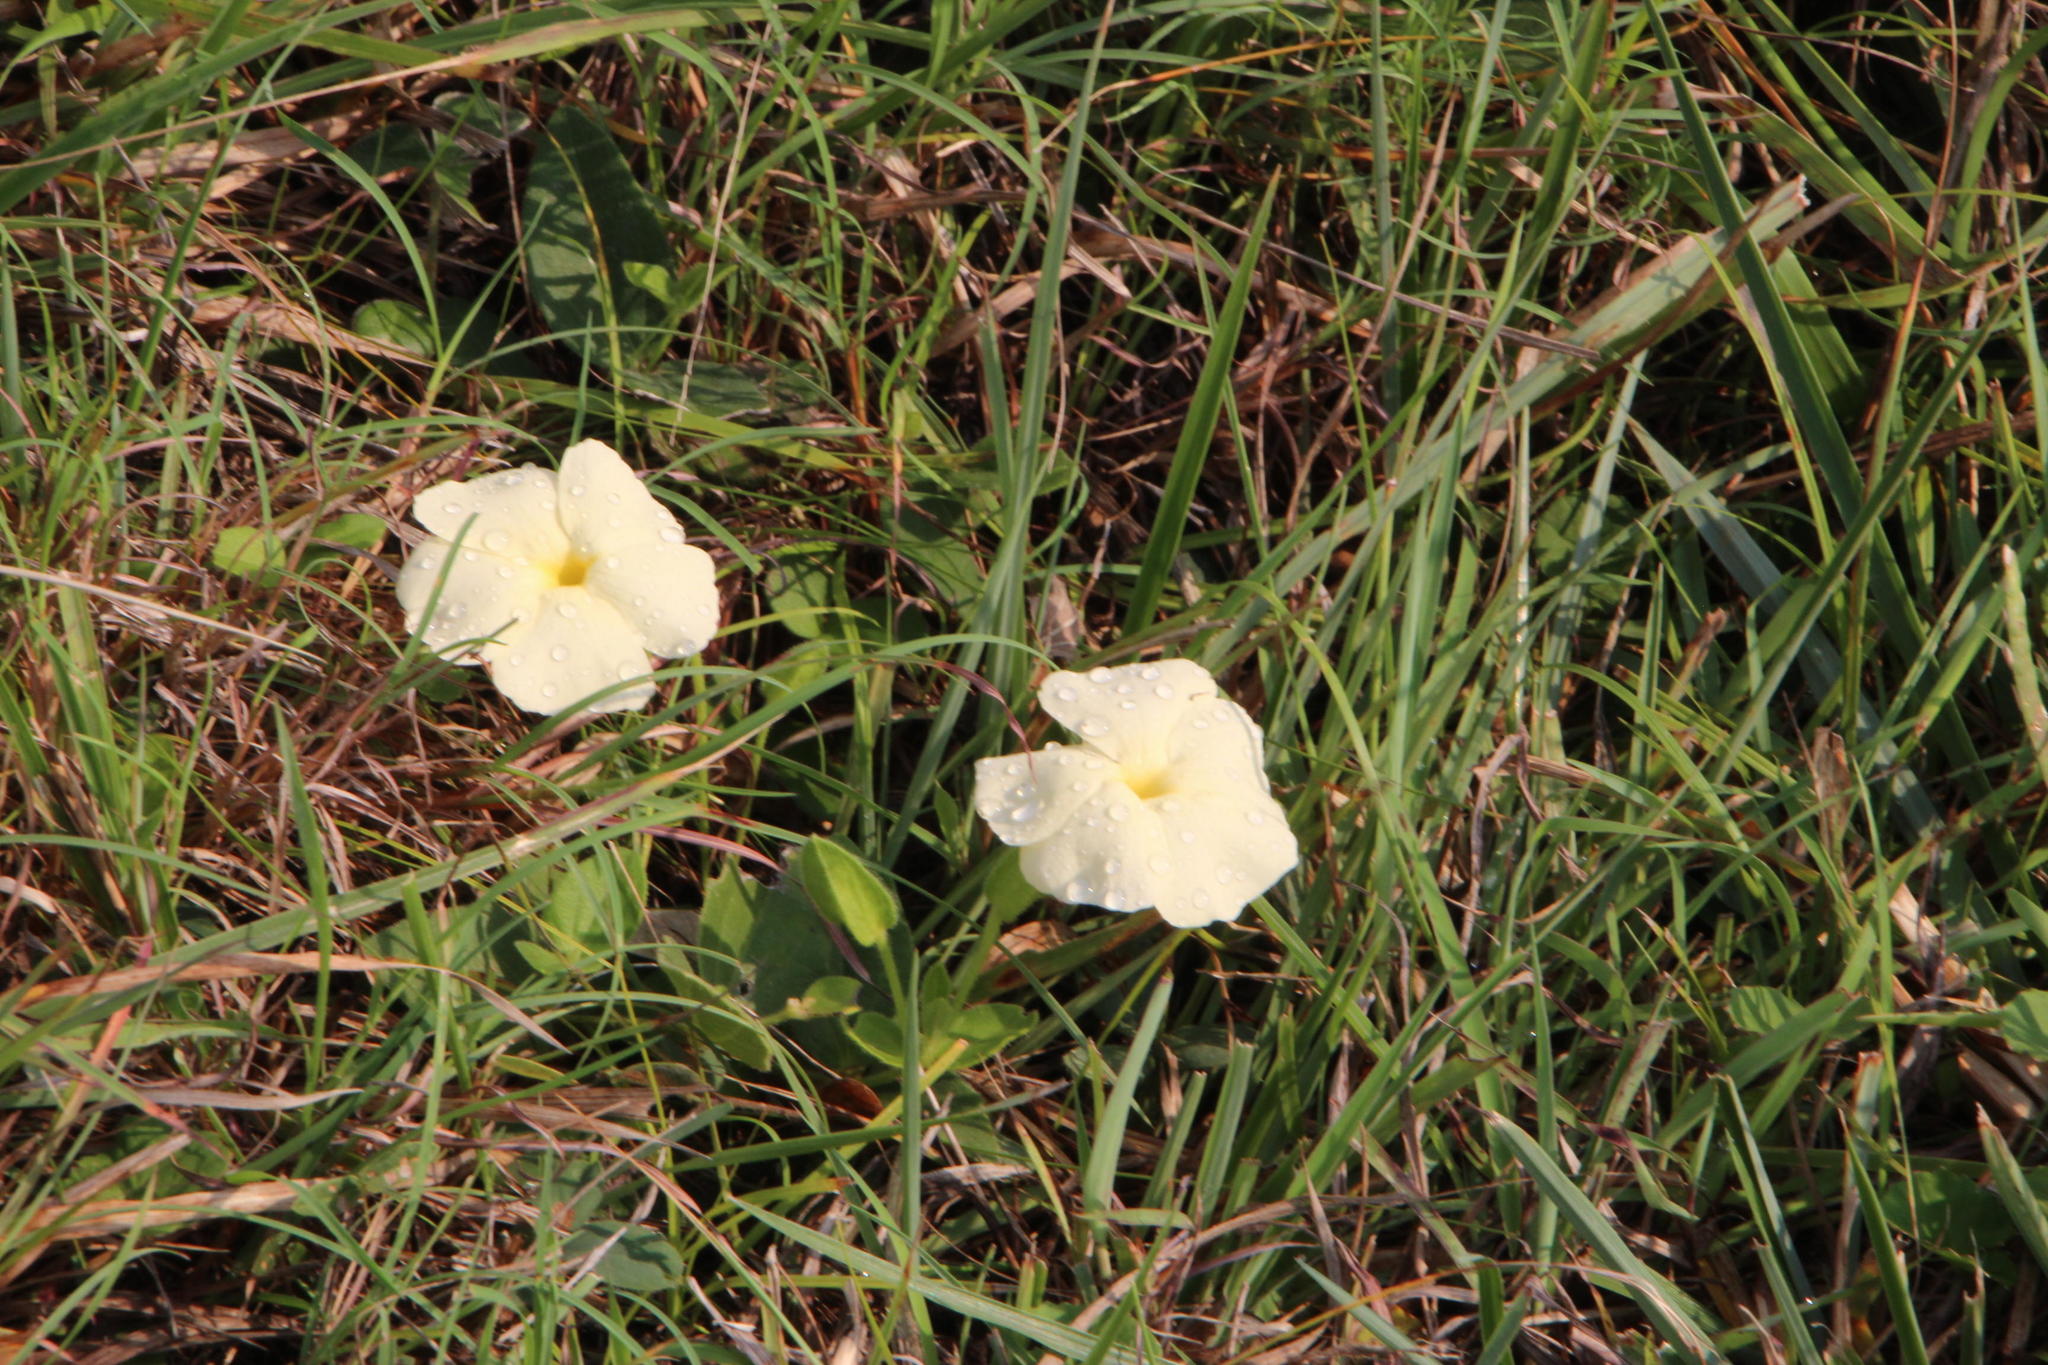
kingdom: Plantae
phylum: Tracheophyta
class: Magnoliopsida
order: Lamiales
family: Acanthaceae
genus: Thunbergia
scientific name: Thunbergia atriplicifolia
